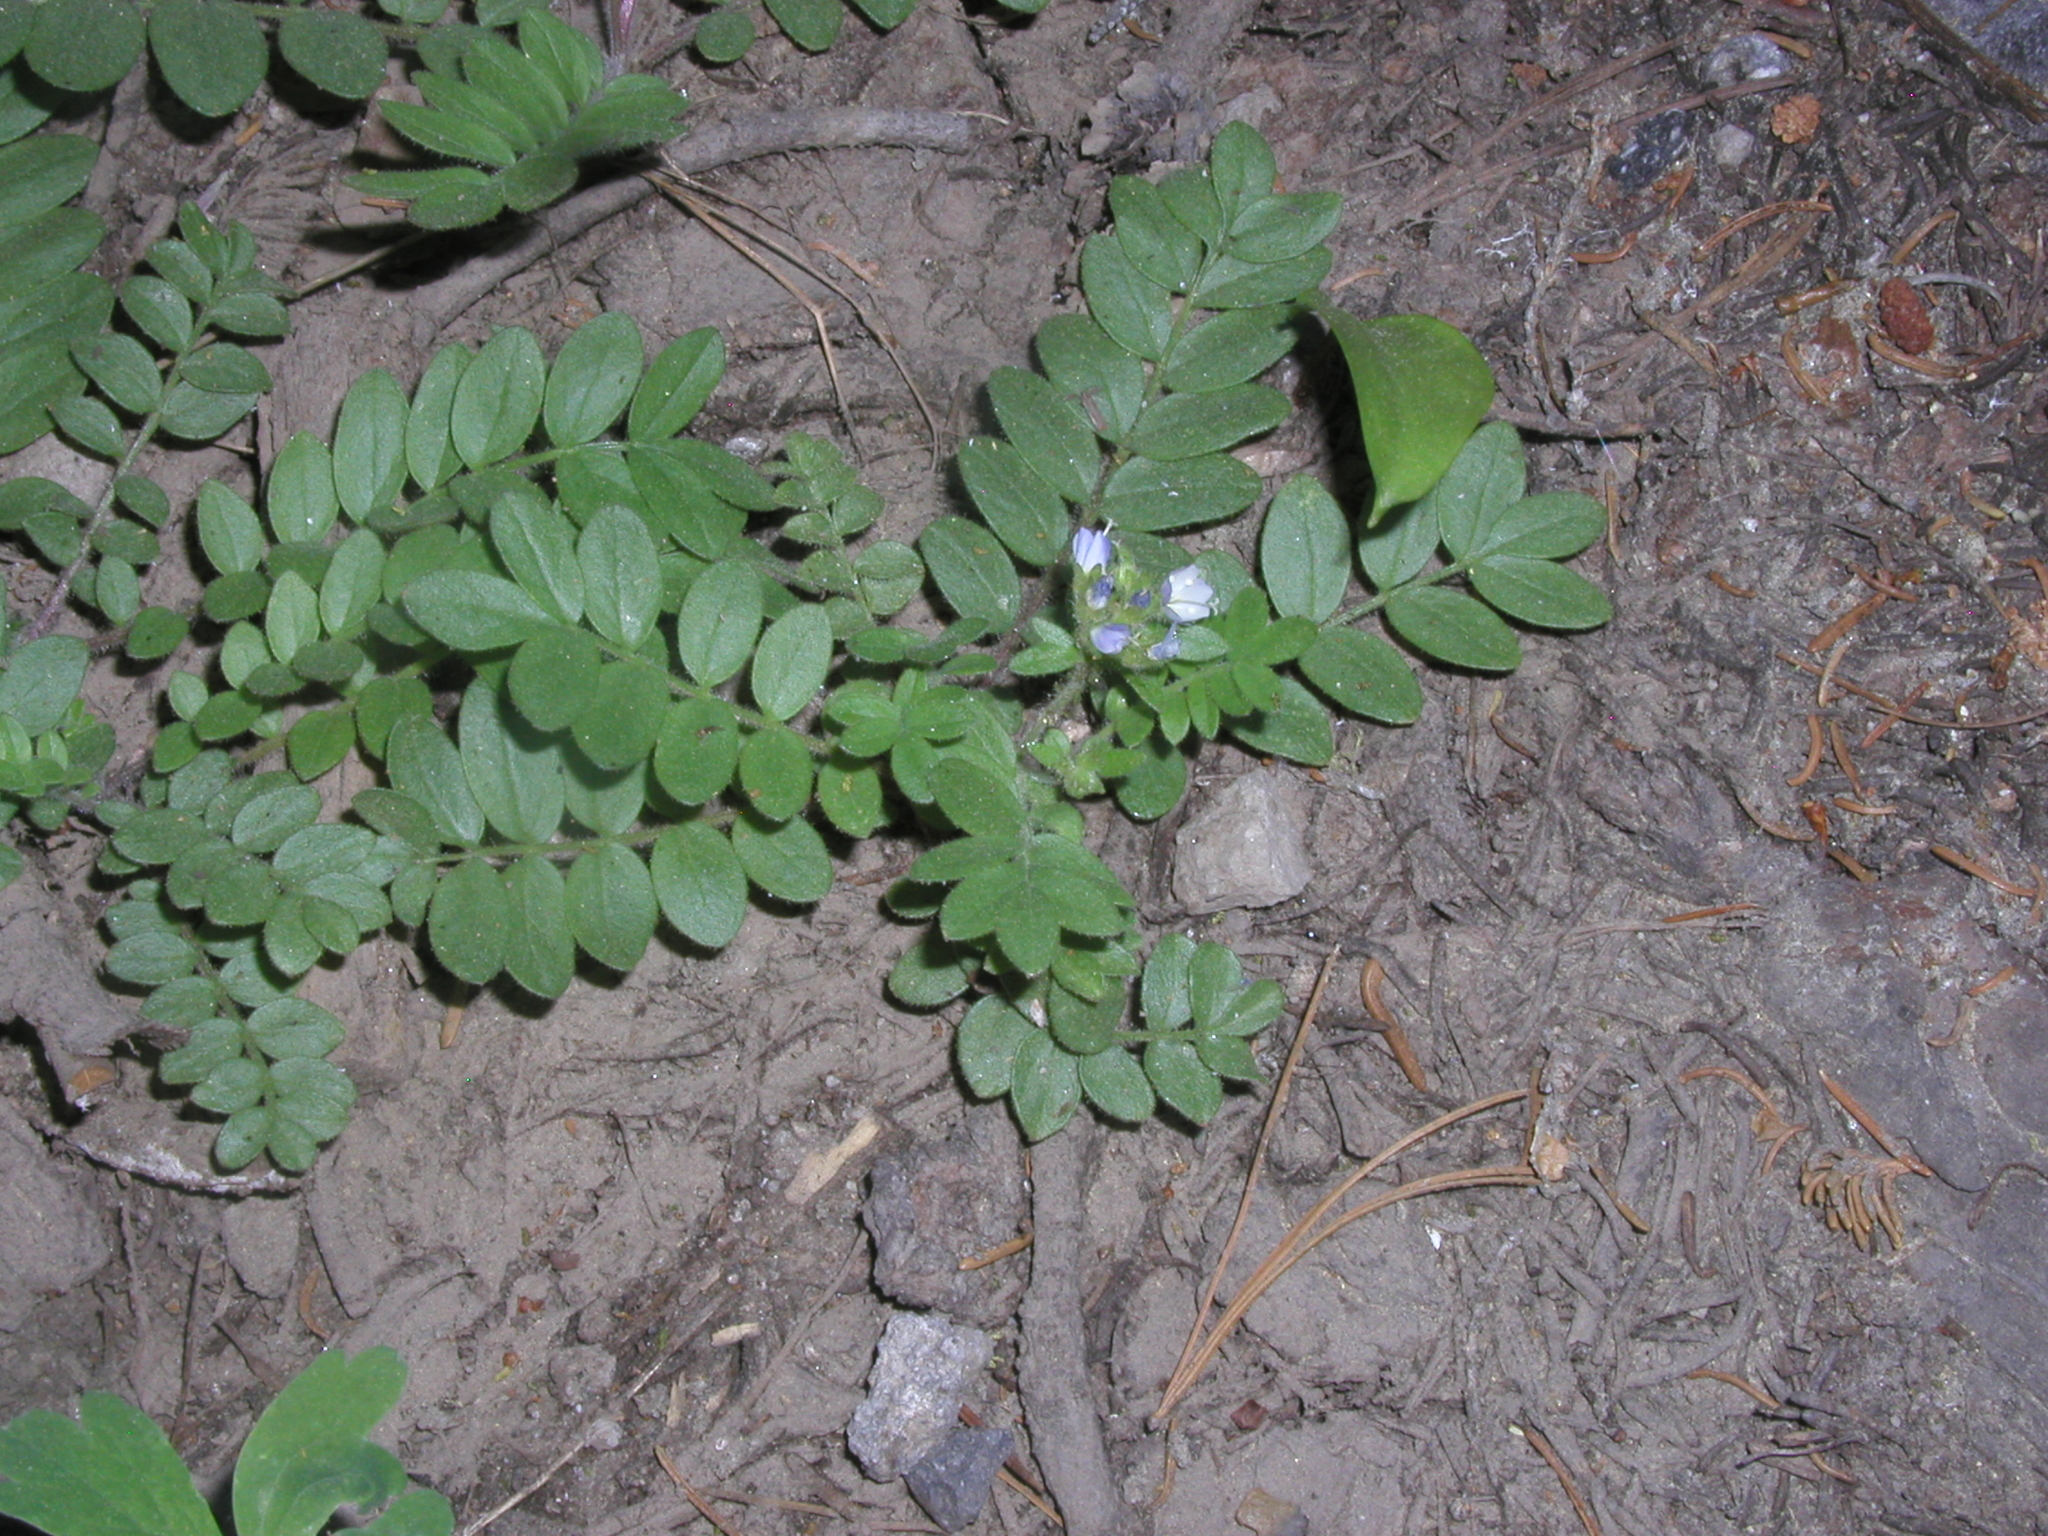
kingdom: Plantae
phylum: Tracheophyta
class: Magnoliopsida
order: Ericales
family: Polemoniaceae
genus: Polemonium
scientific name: Polemonium californicum
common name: California jacob's ladder
